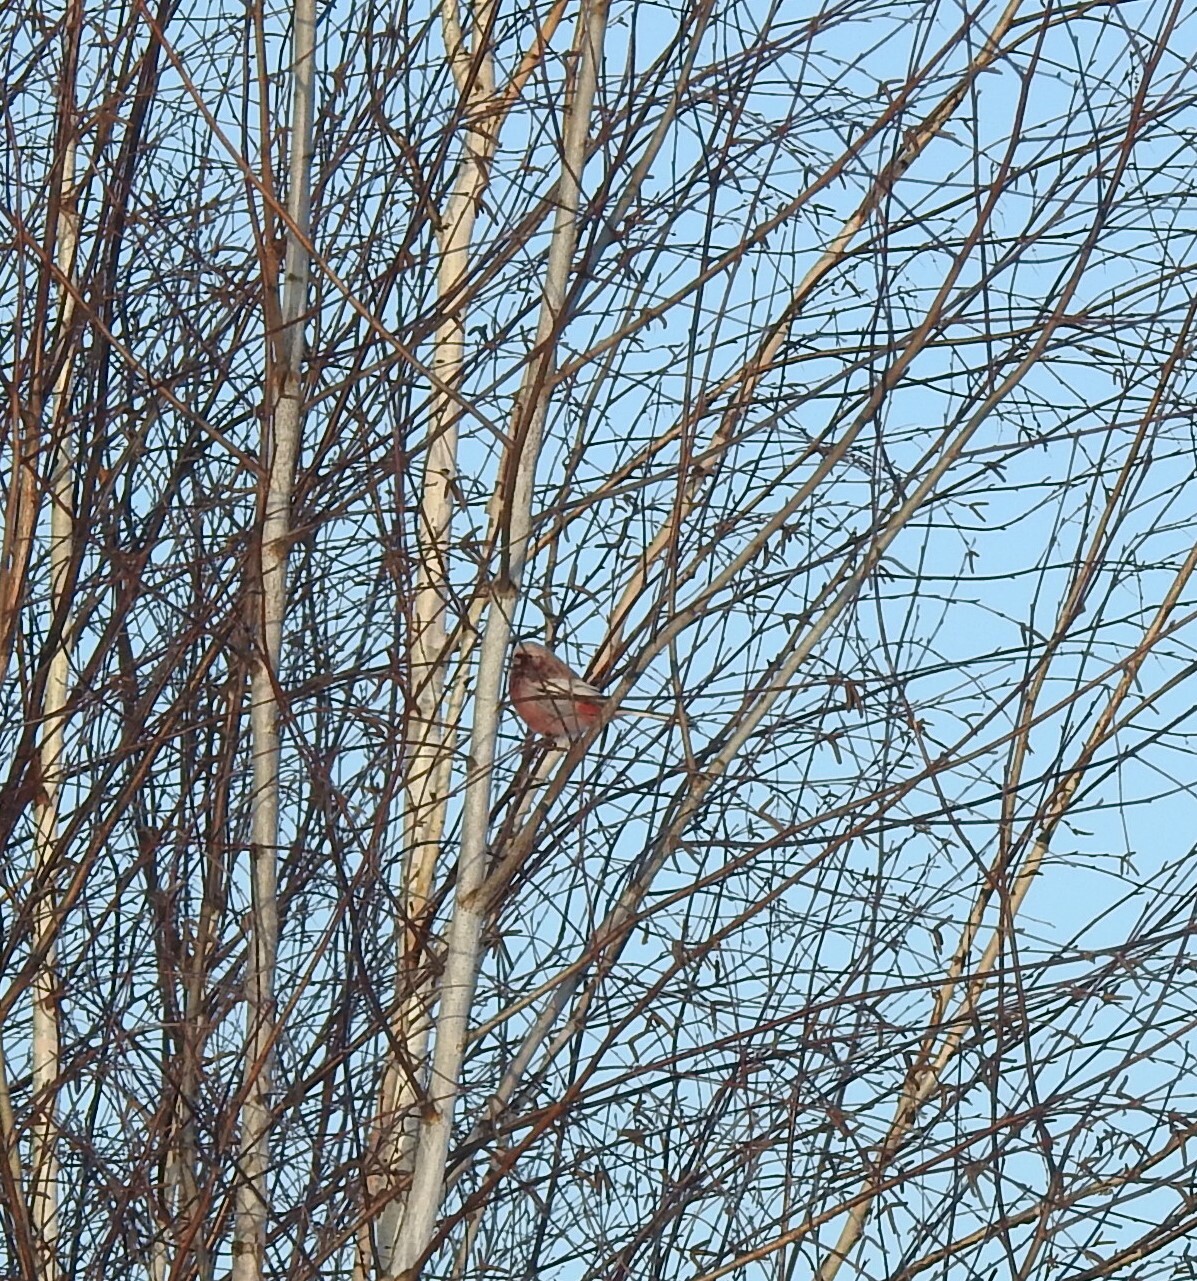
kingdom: Animalia
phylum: Chordata
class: Aves
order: Passeriformes
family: Fringillidae
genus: Carpodacus
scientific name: Carpodacus sibiricus
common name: Long-tailed rosefinch
